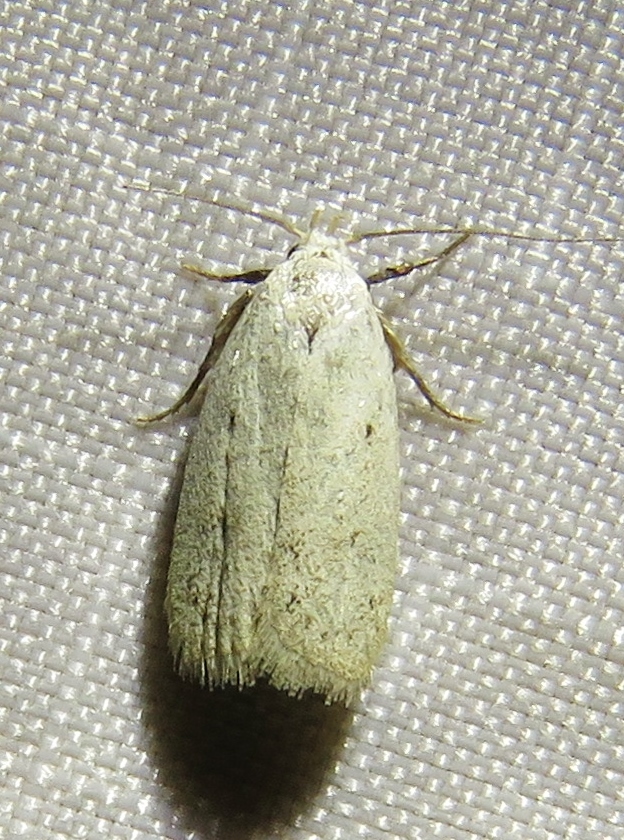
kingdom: Animalia
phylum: Arthropoda
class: Insecta
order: Lepidoptera
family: Oecophoridae
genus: Inga
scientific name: Inga cretacea
